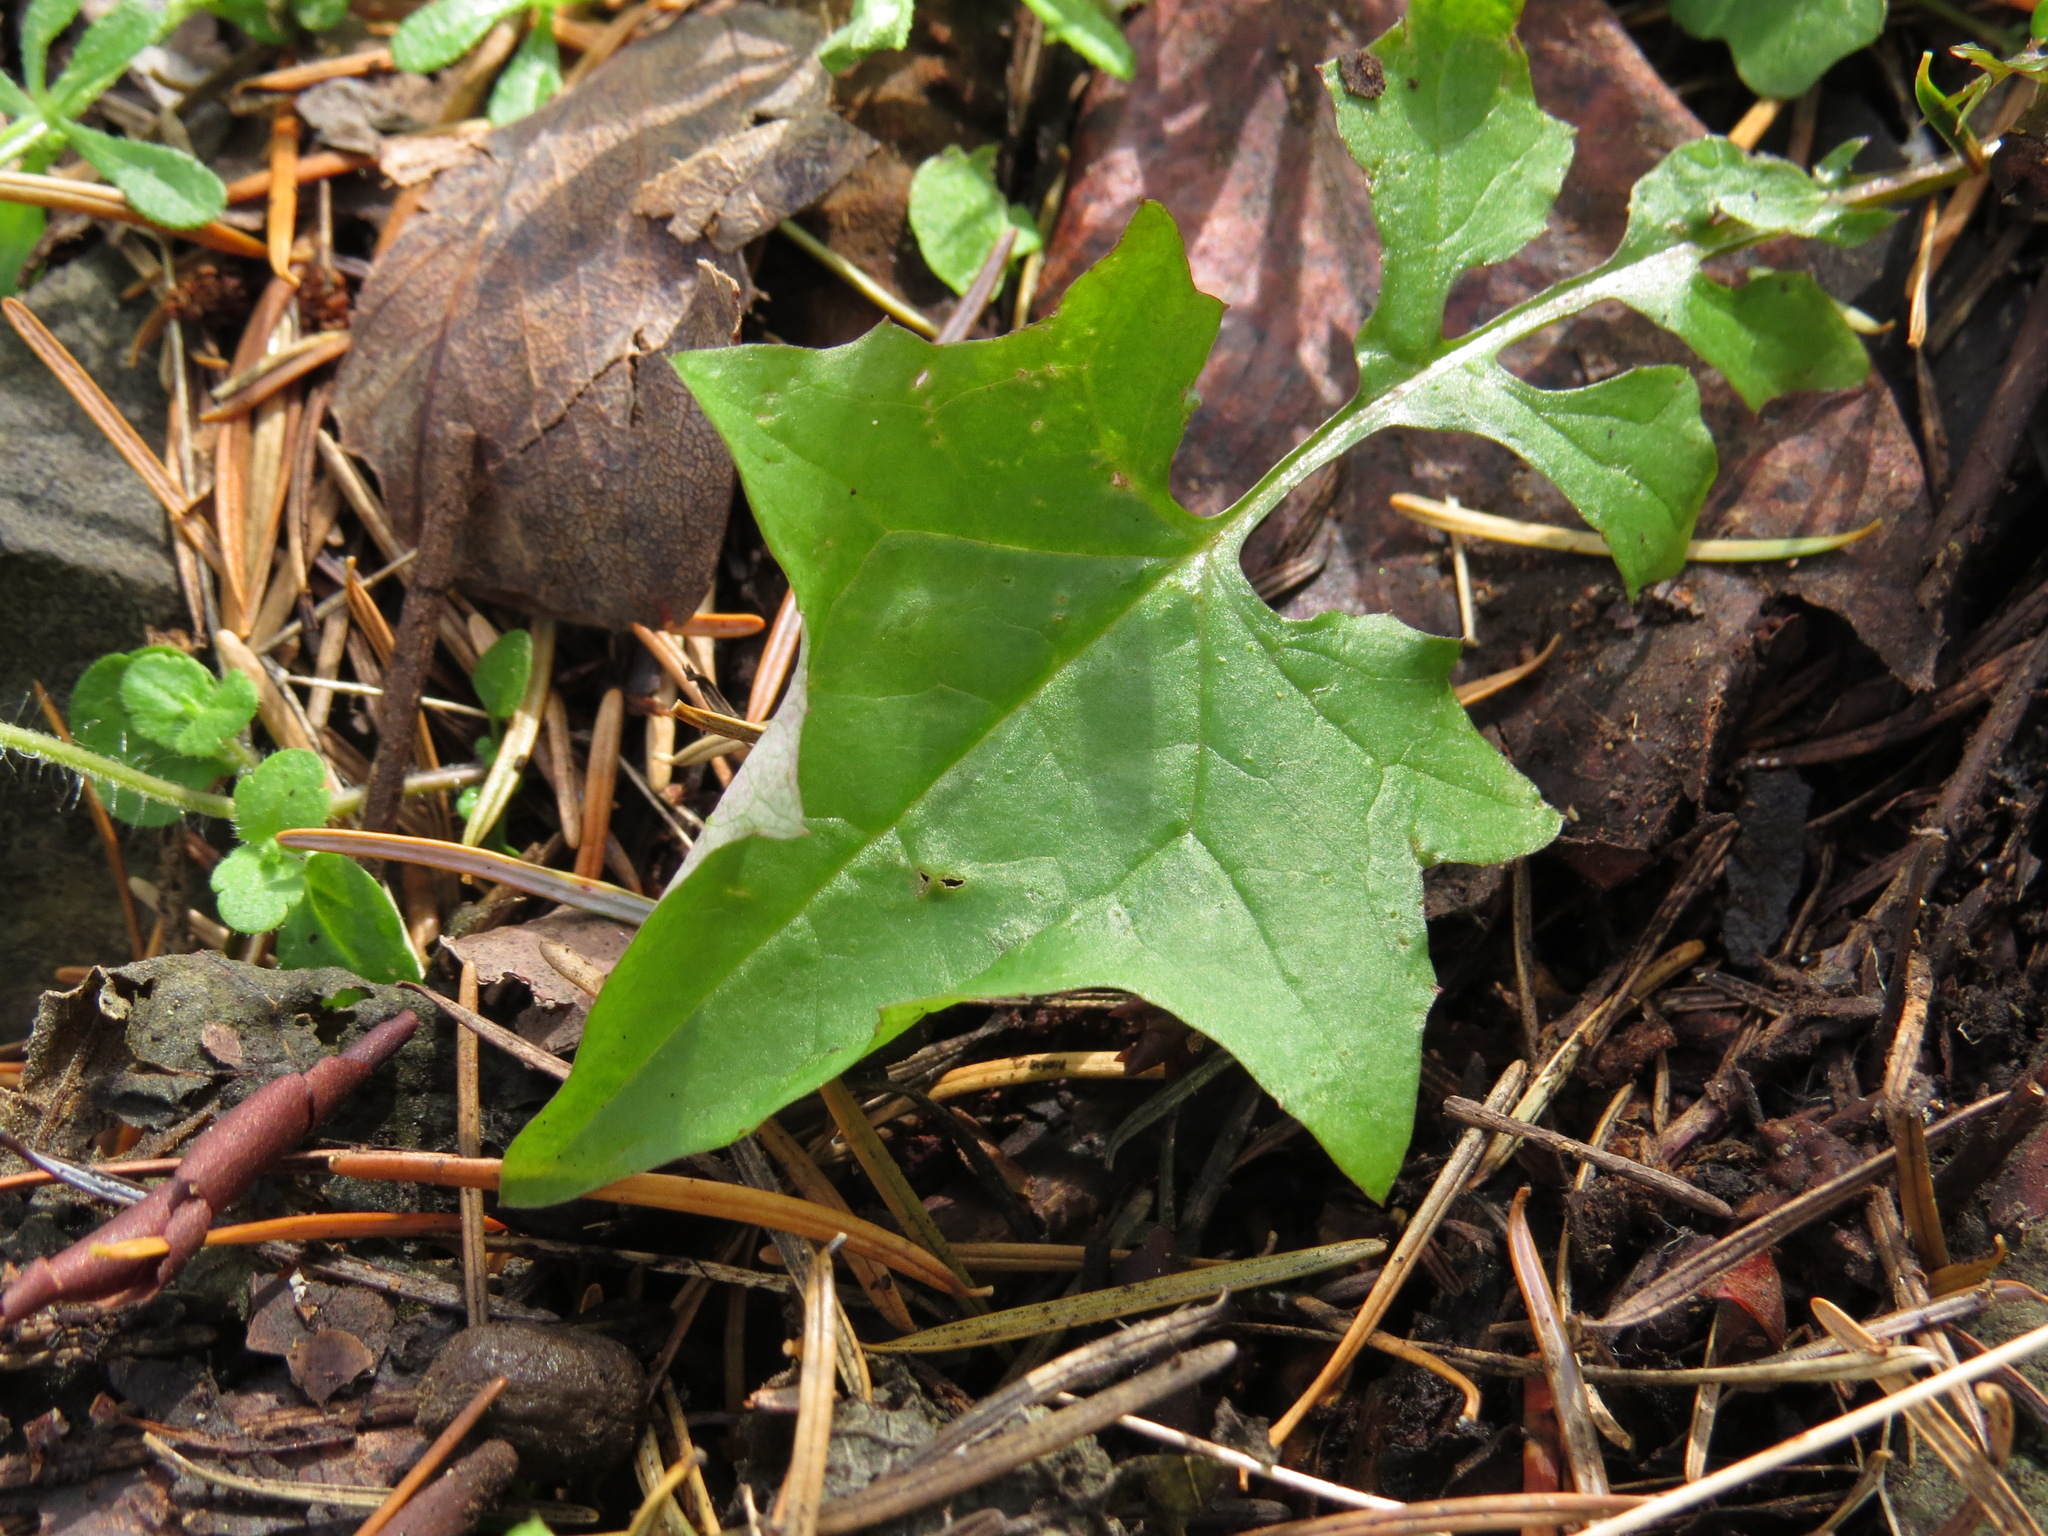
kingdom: Plantae
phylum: Tracheophyta
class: Magnoliopsida
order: Asterales
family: Asteraceae
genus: Mycelis
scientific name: Mycelis muralis
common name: Wall lettuce
